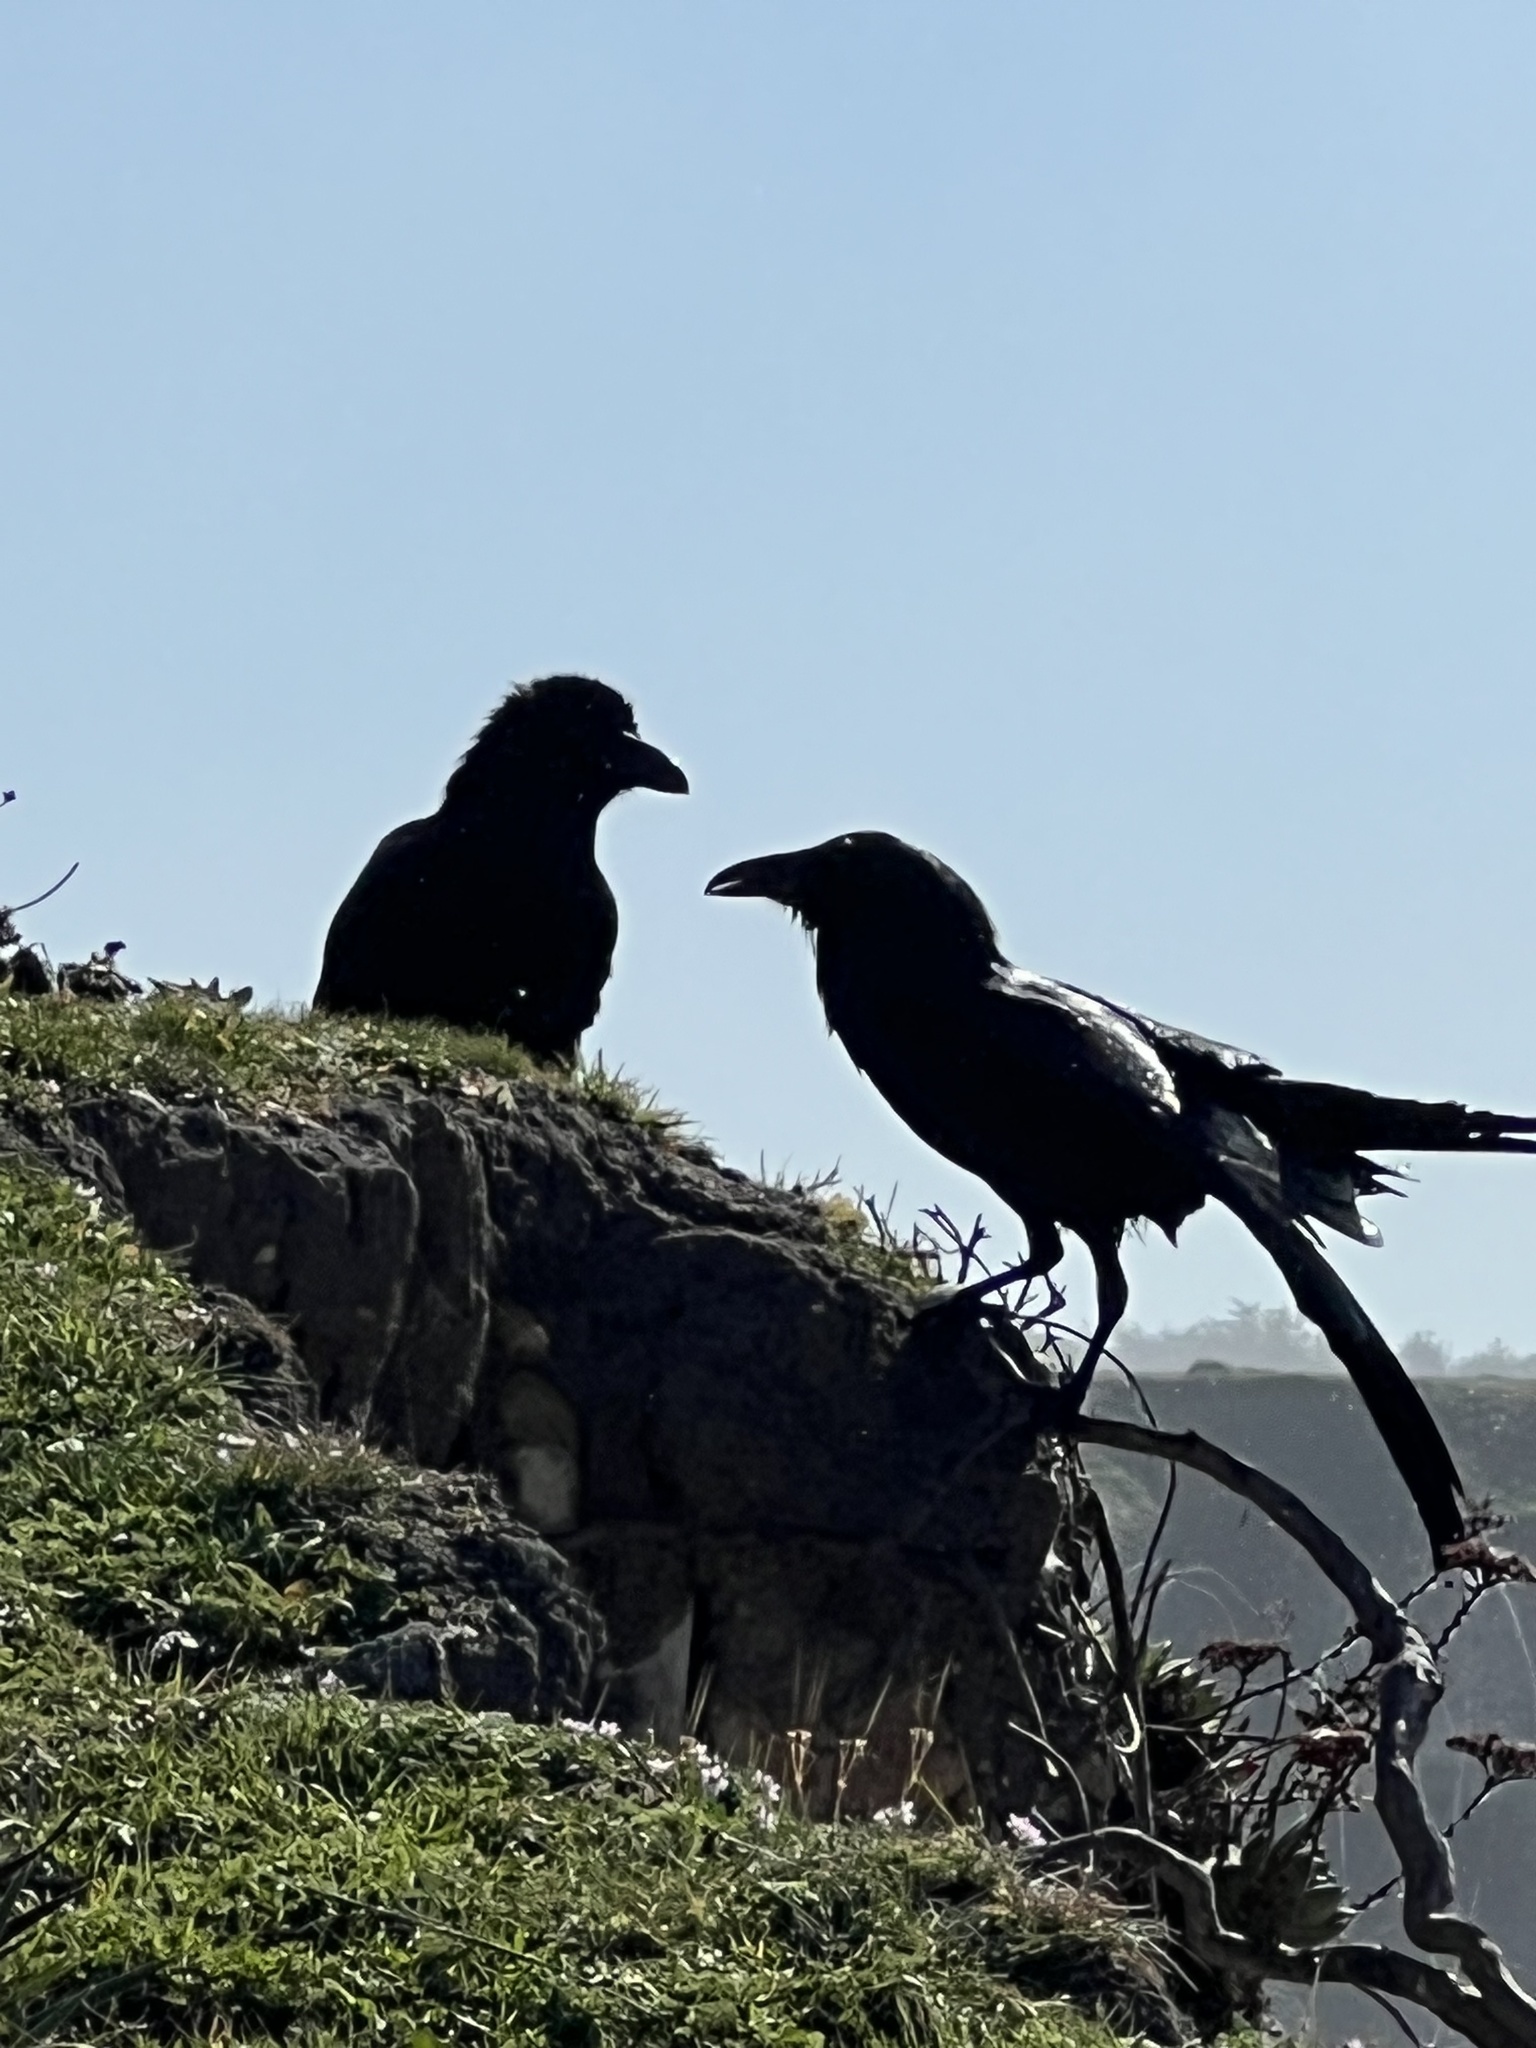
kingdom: Animalia
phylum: Chordata
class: Aves
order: Passeriformes
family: Corvidae
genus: Corvus
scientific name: Corvus corax
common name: Common raven
